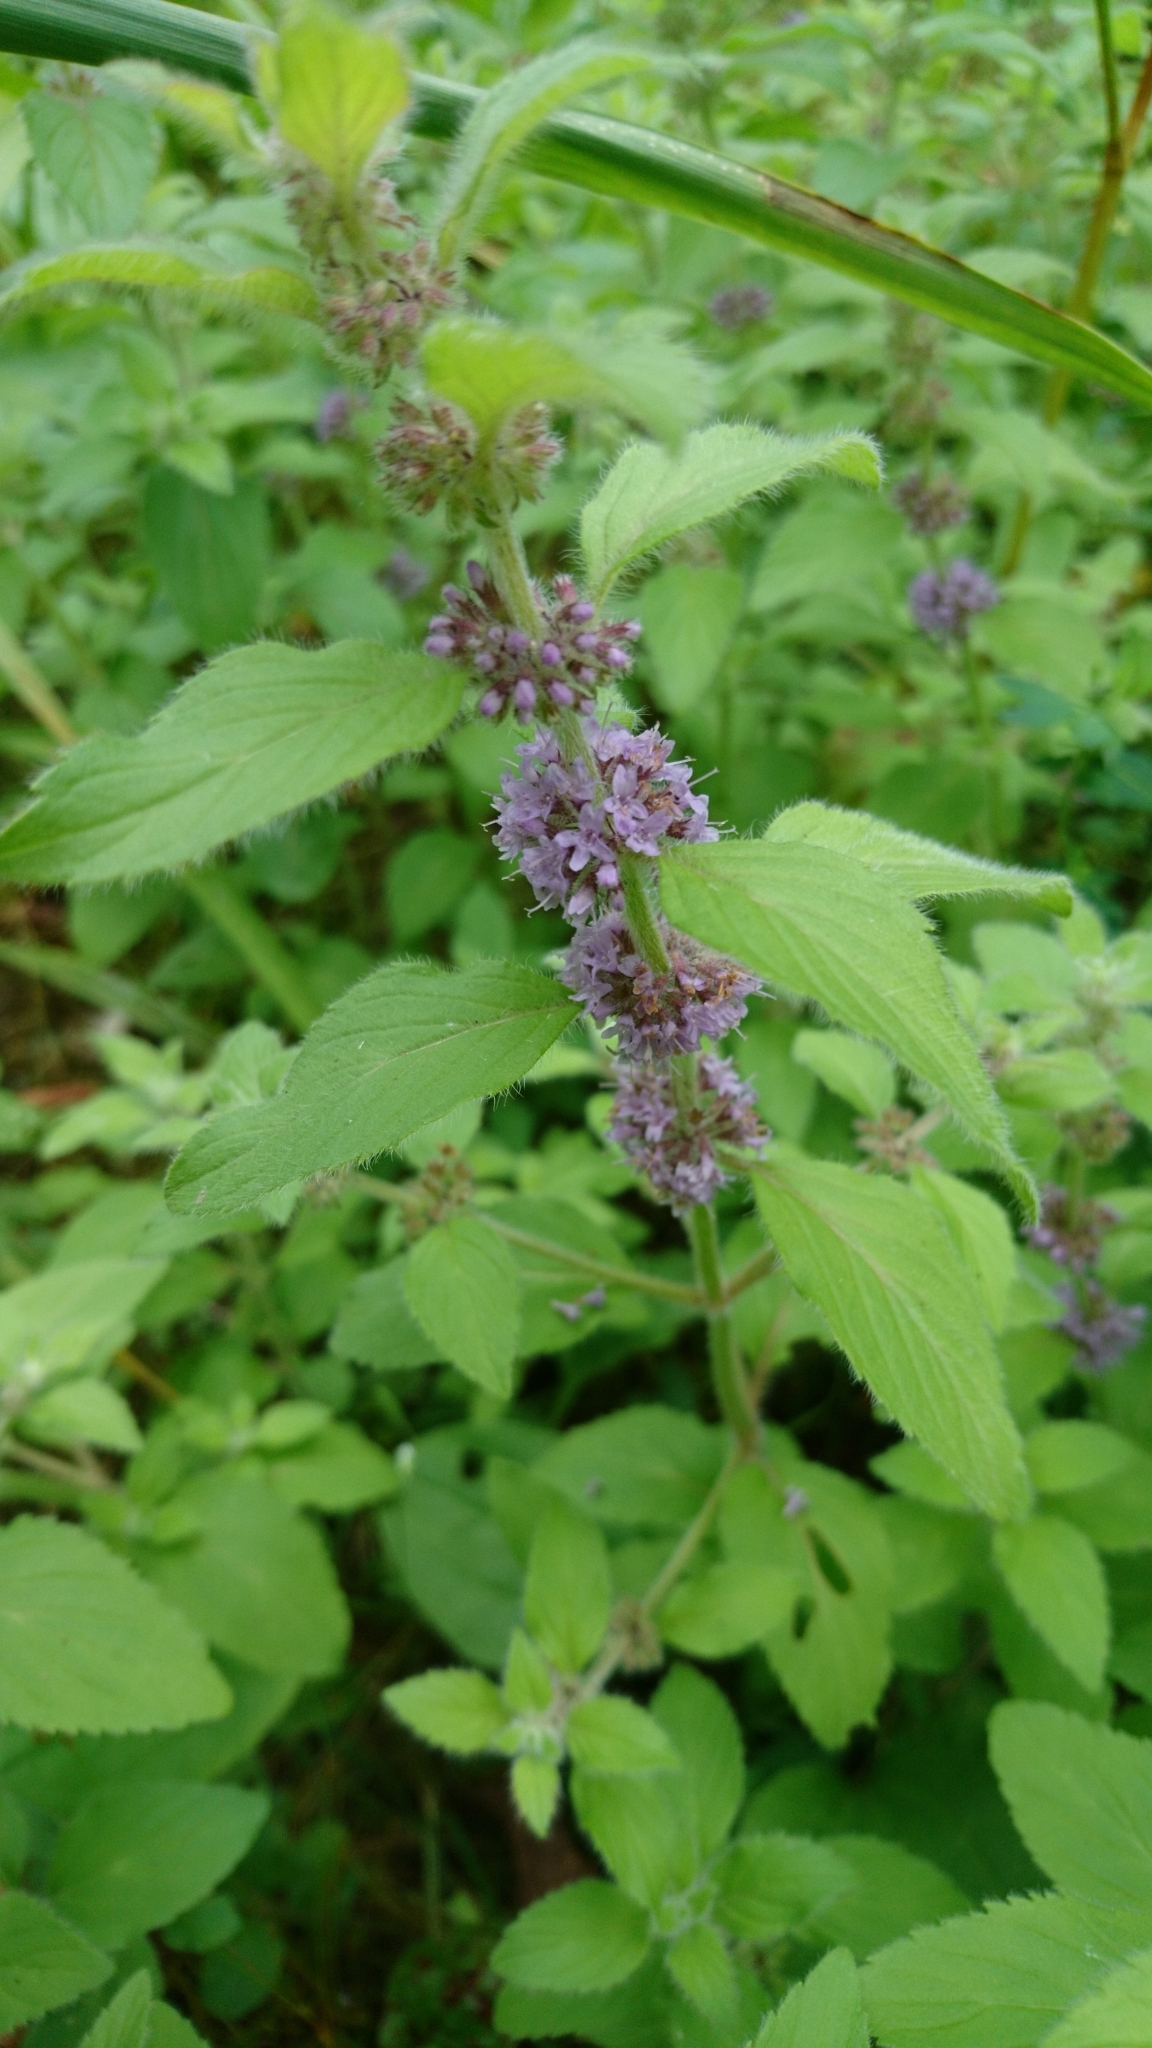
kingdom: Plantae
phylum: Tracheophyta
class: Magnoliopsida
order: Lamiales
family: Lamiaceae
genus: Mentha
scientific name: Mentha arvensis
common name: Corn mint
